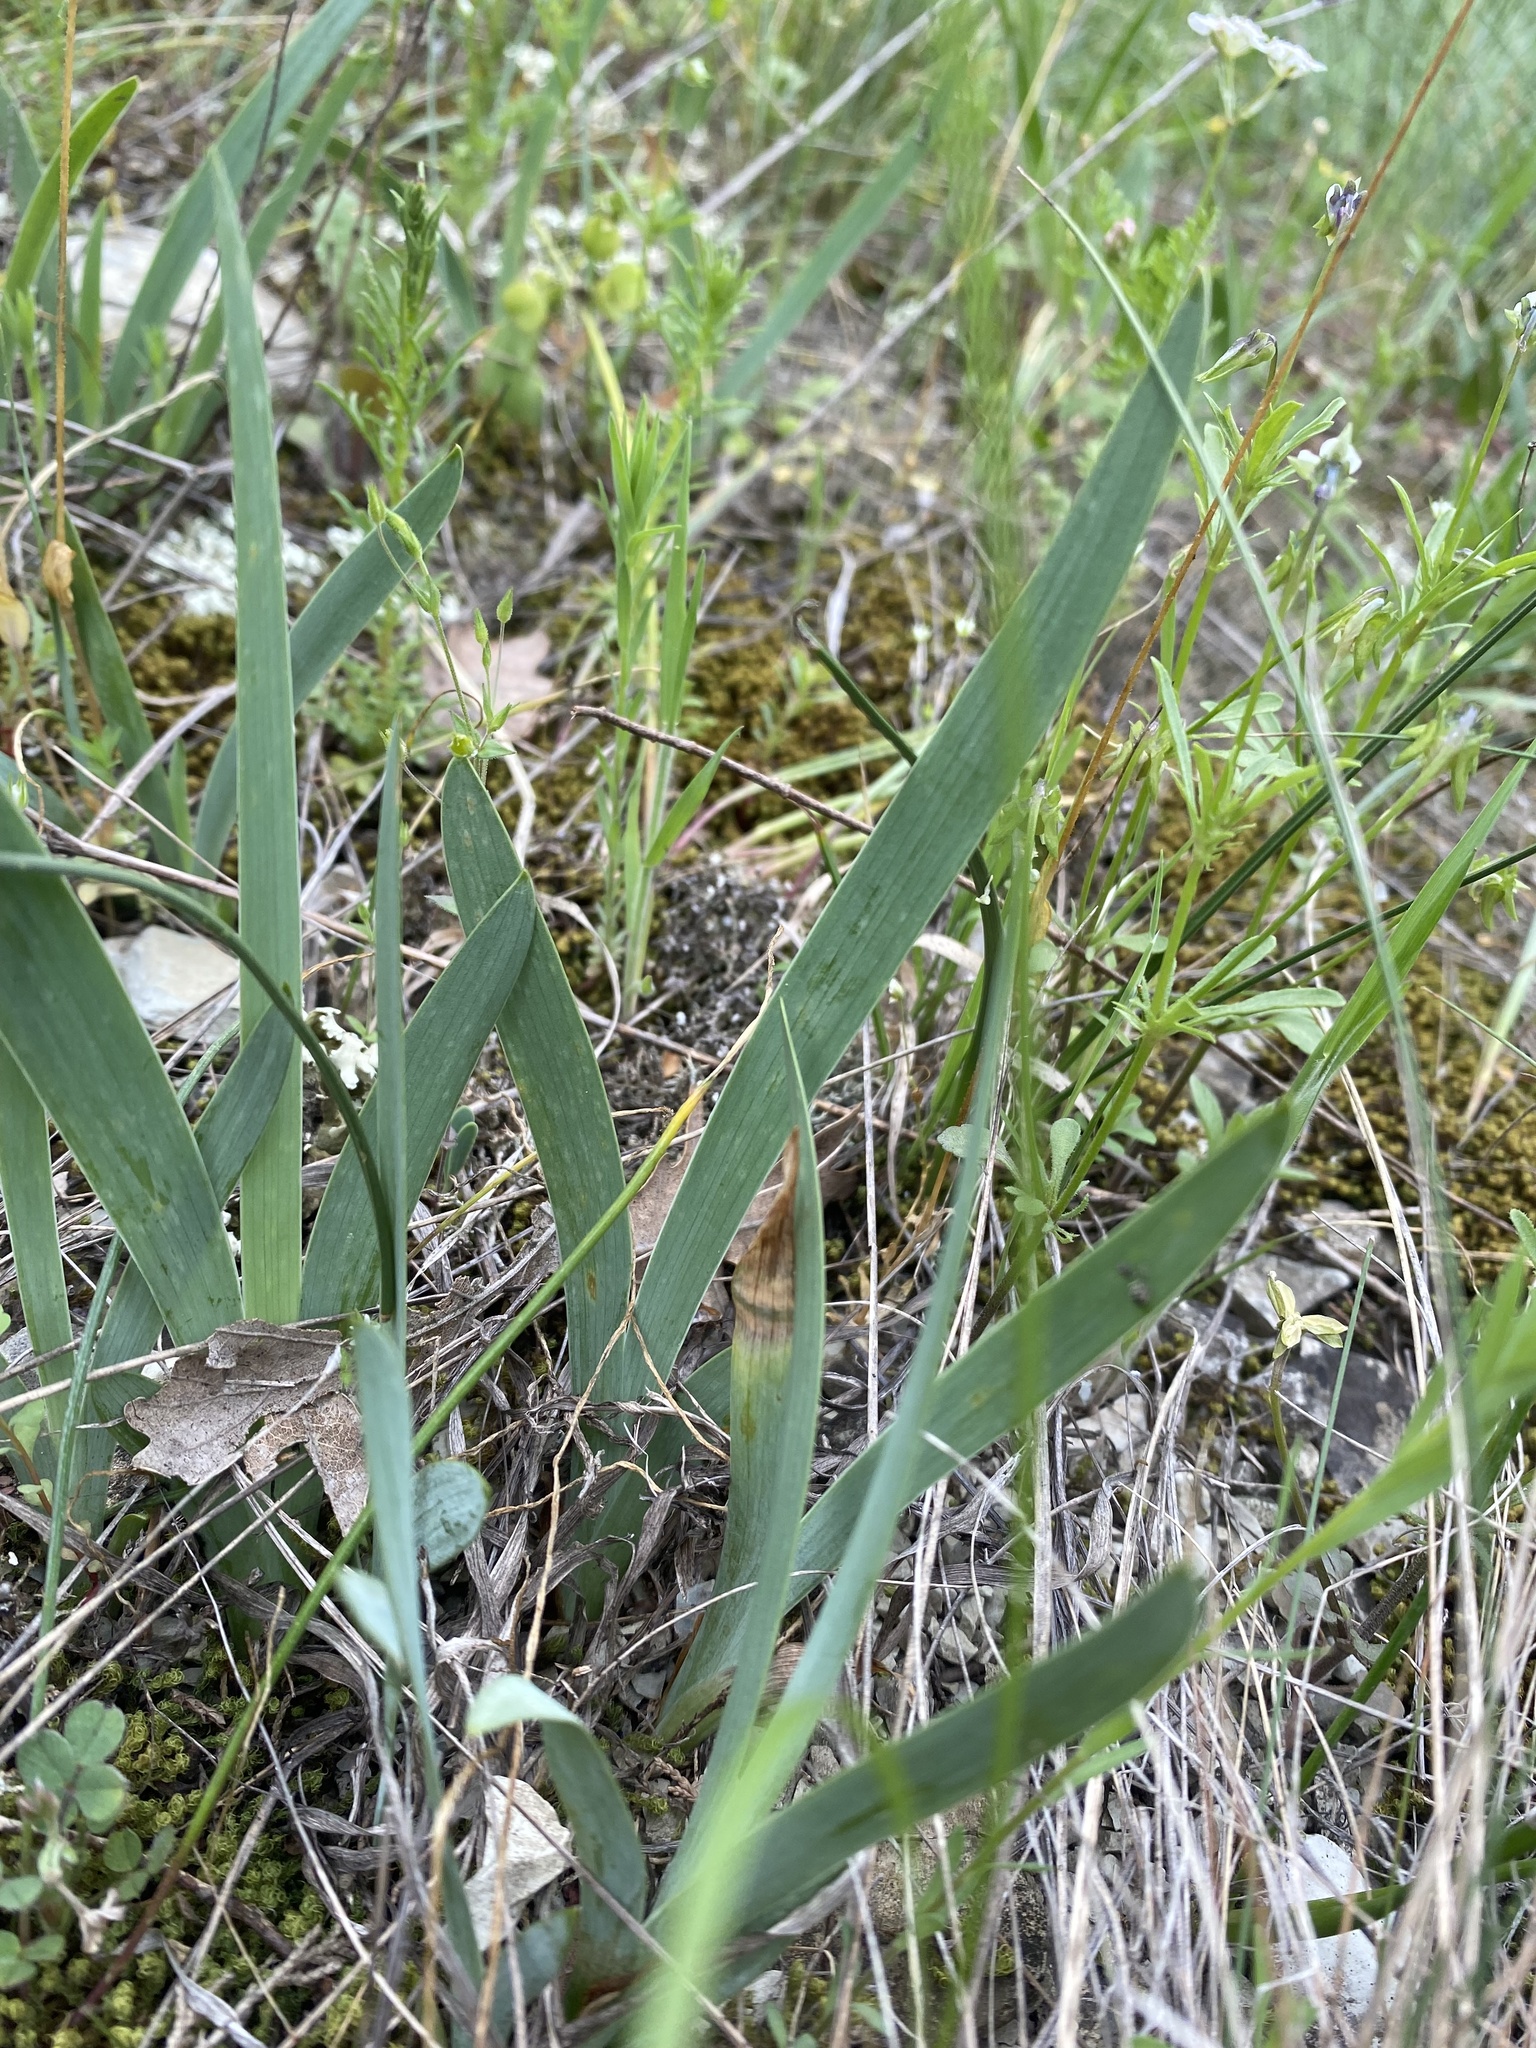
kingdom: Plantae
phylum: Tracheophyta
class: Liliopsida
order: Asparagales
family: Iridaceae
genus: Iris
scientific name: Iris pumila
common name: Dwarf iris
